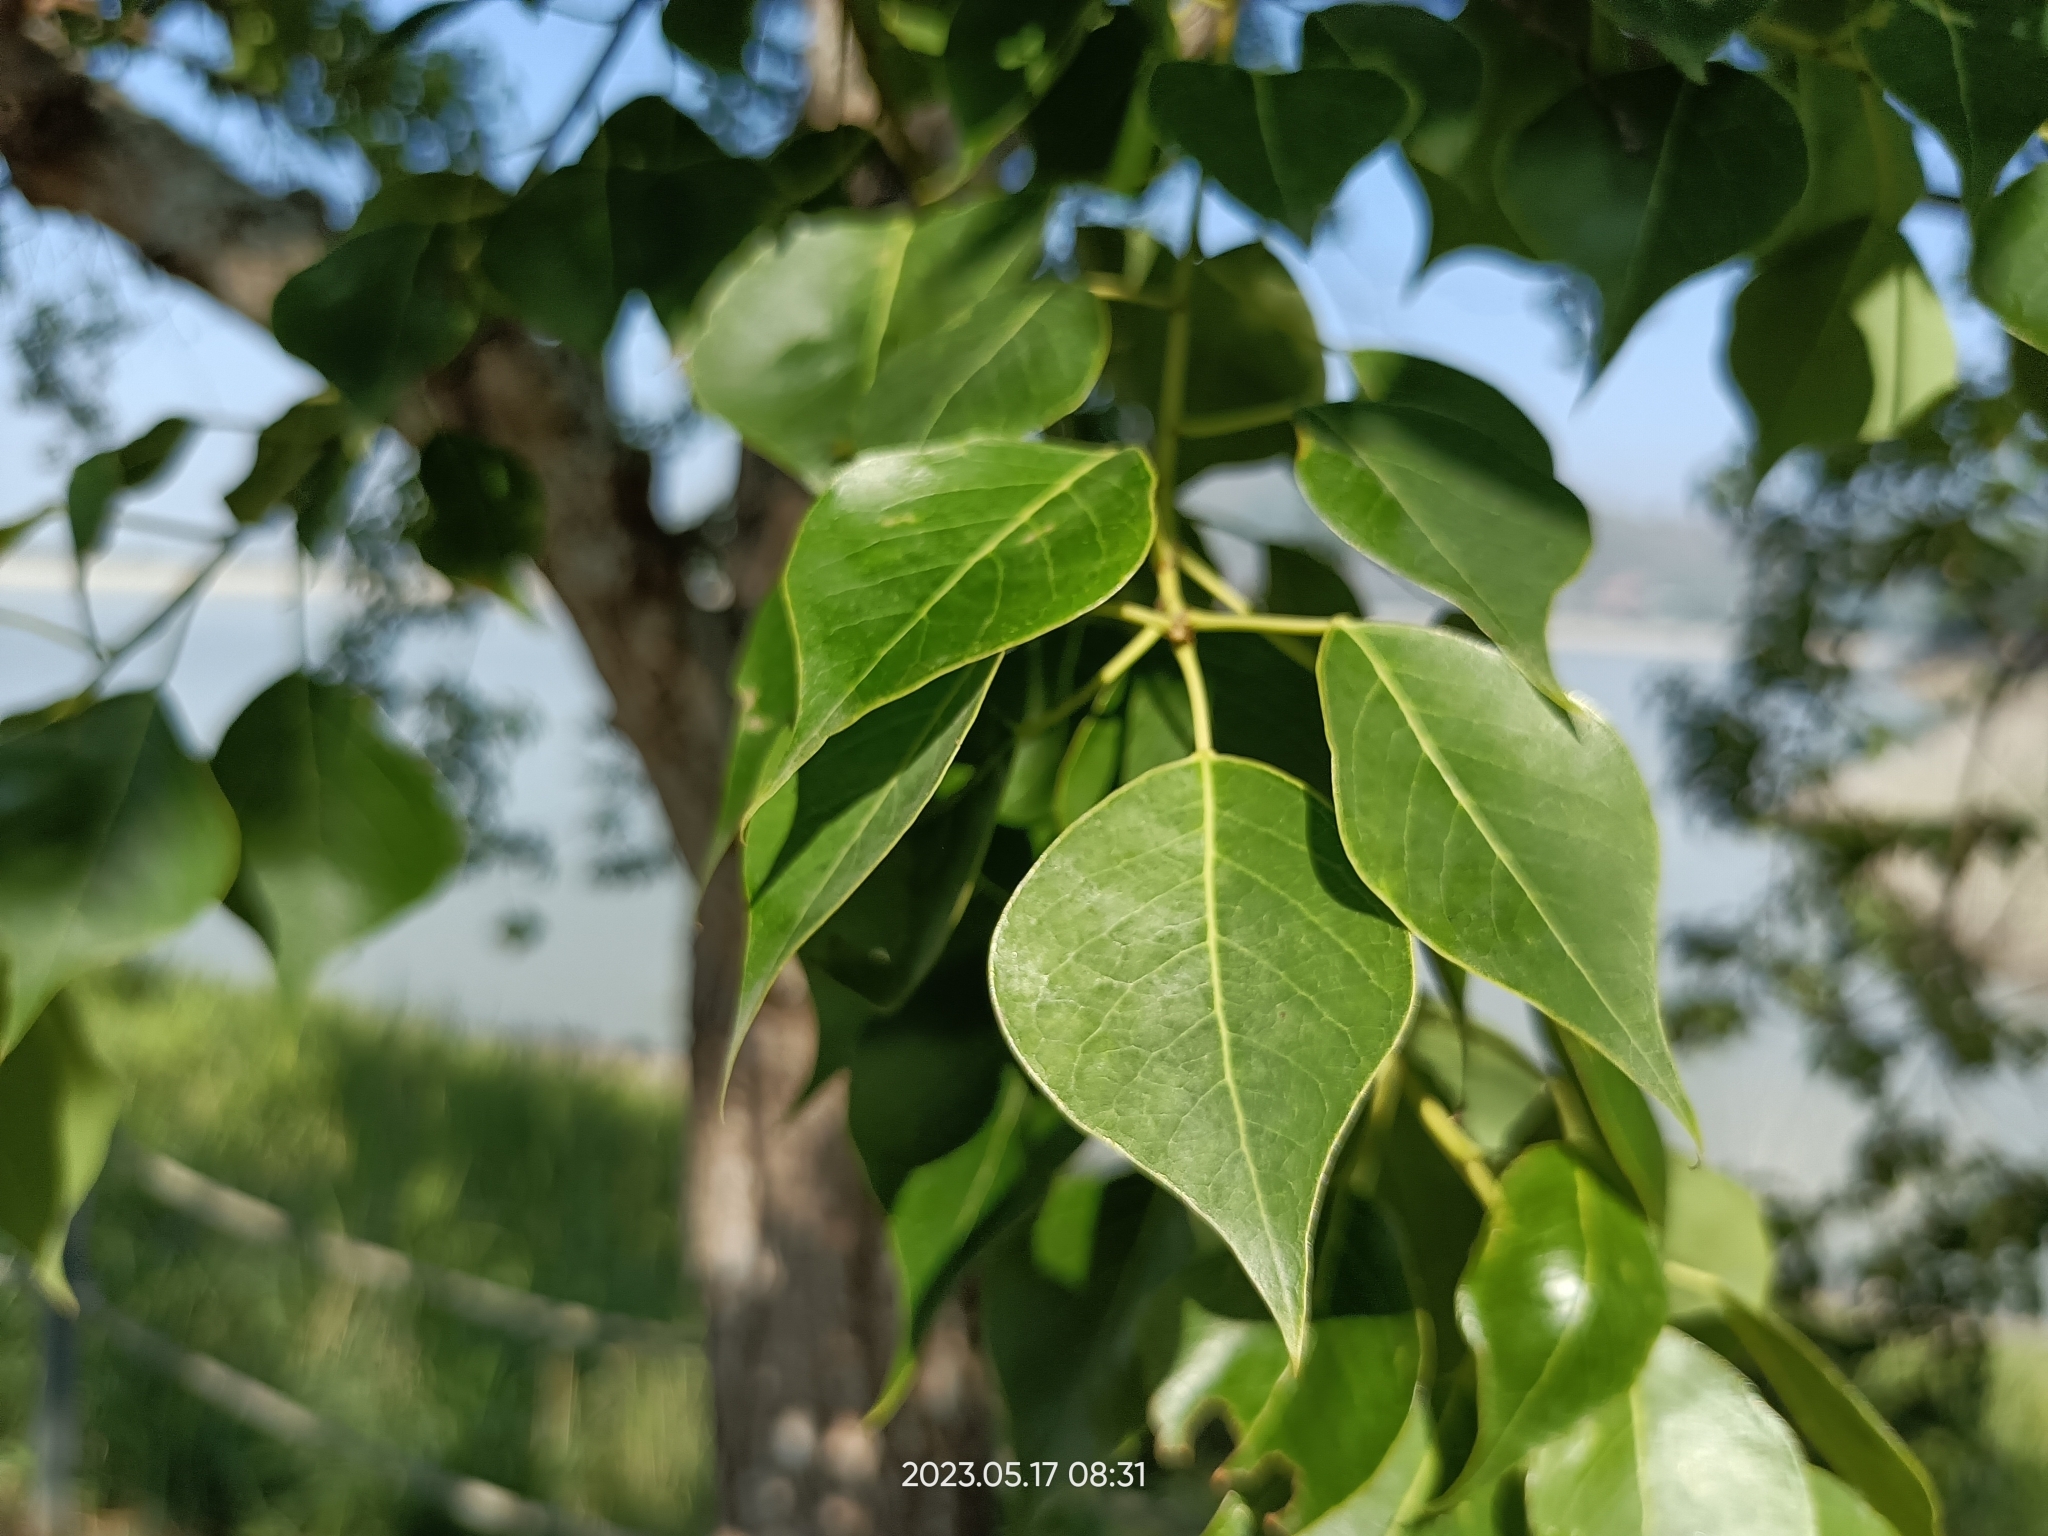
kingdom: Plantae
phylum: Tracheophyta
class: Magnoliopsida
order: Malpighiales
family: Euphorbiaceae
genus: Triadica
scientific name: Triadica sebifera
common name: Chinese tallow
